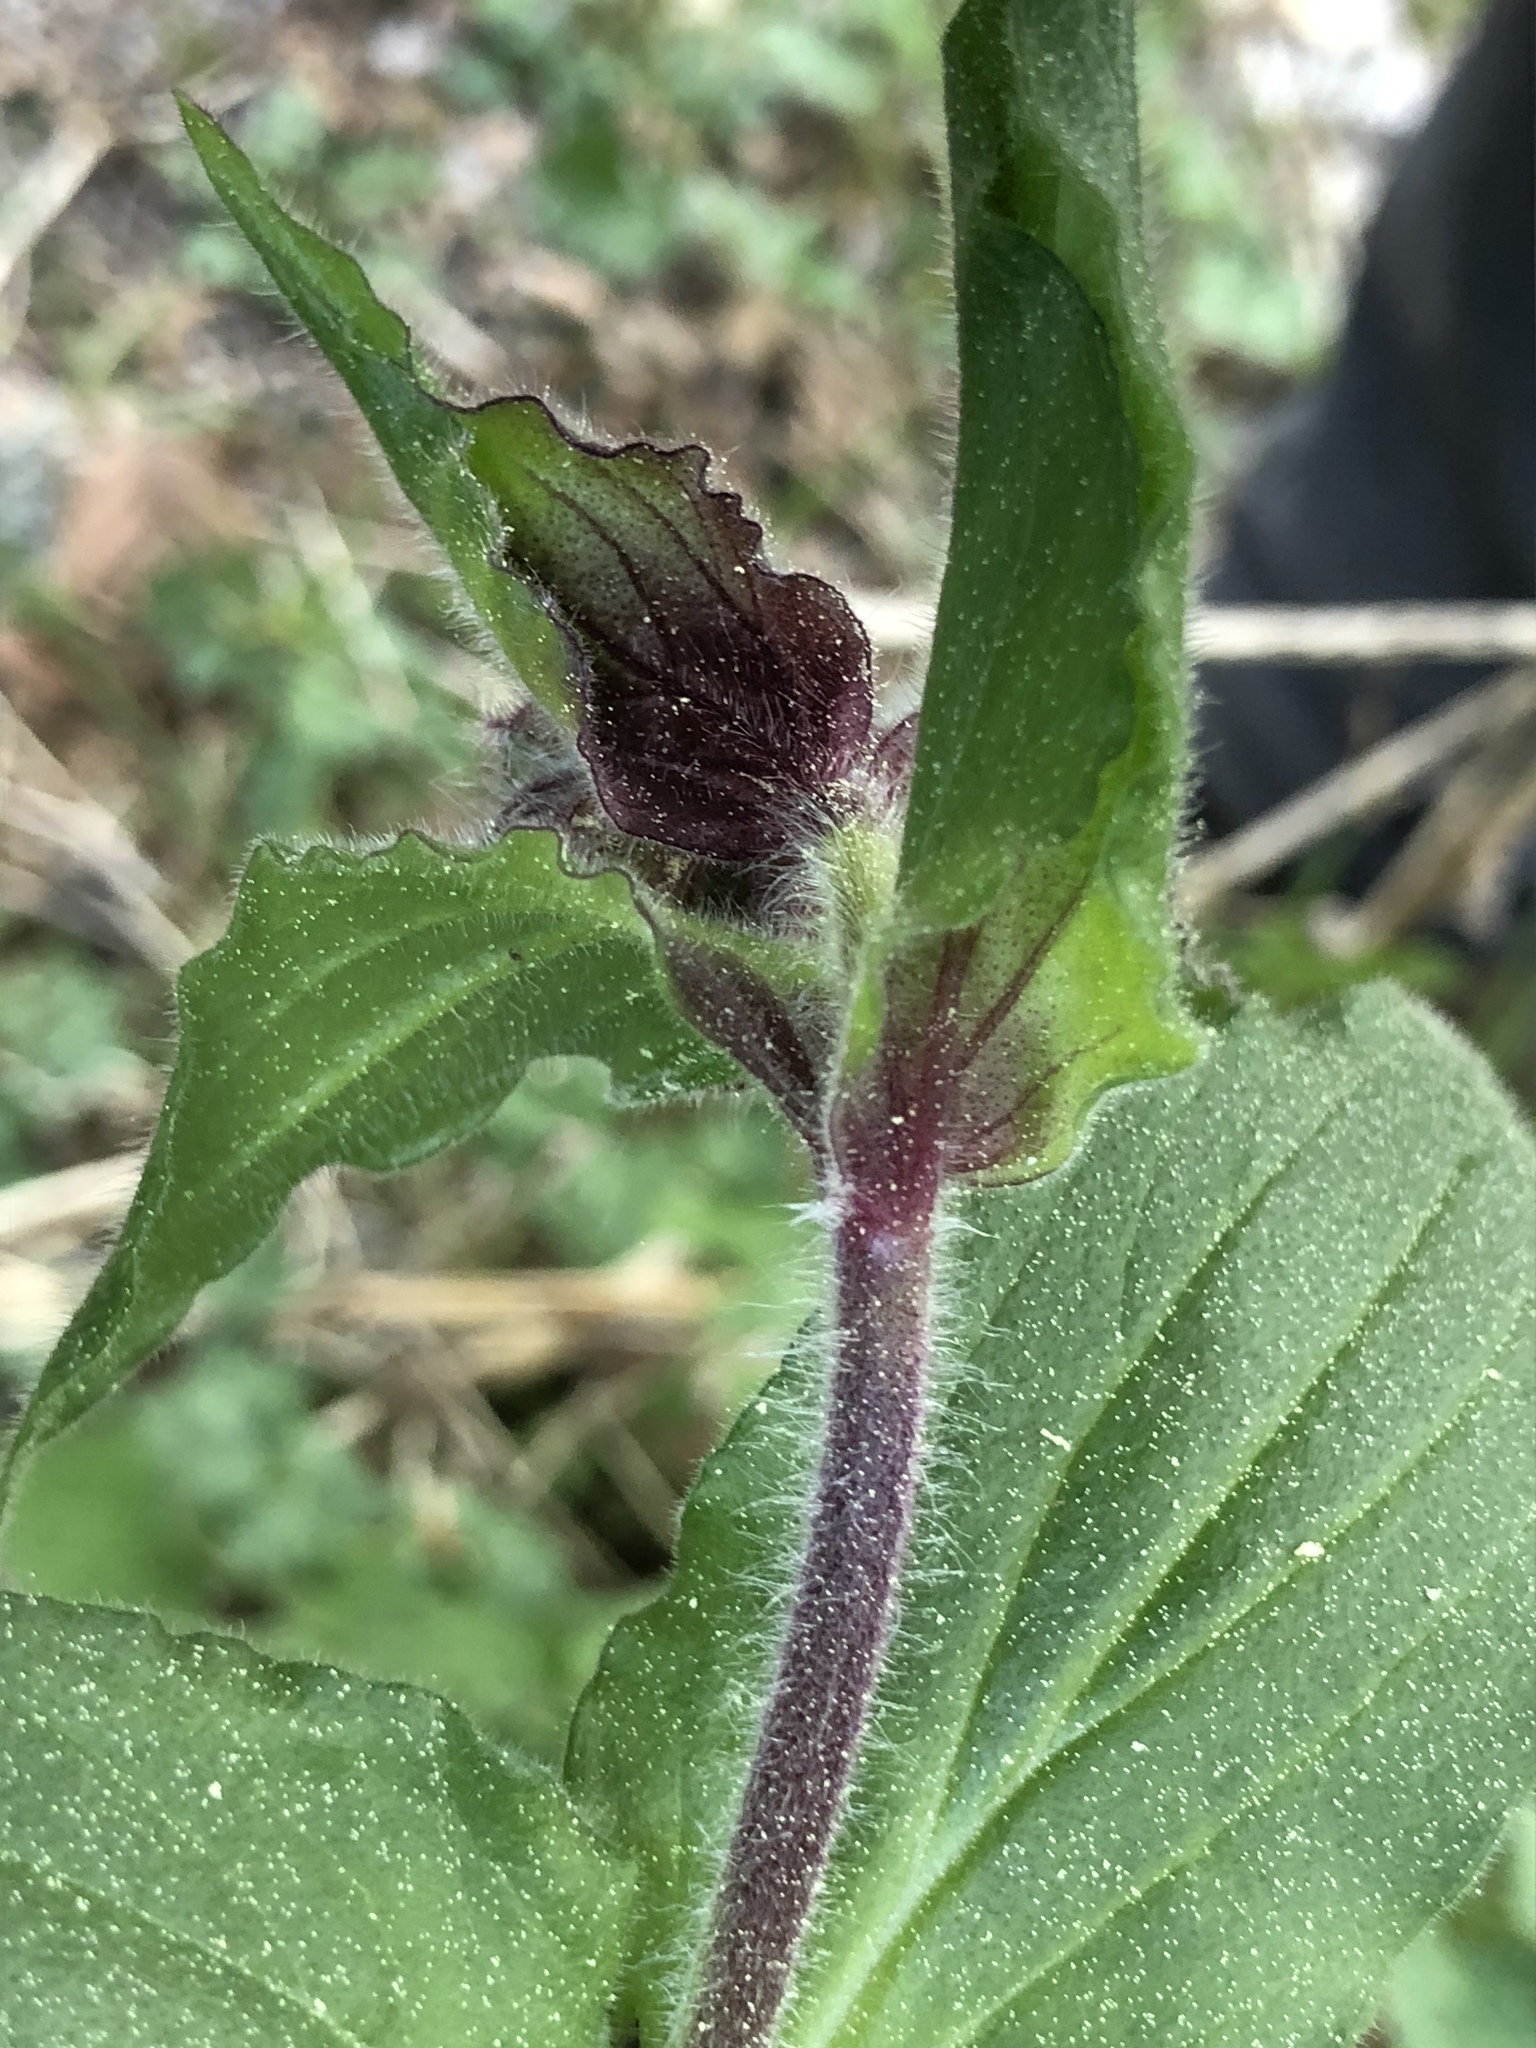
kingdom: Plantae
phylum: Tracheophyta
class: Magnoliopsida
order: Lamiales
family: Lamiaceae
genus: Prunella
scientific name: Prunella grandiflora
